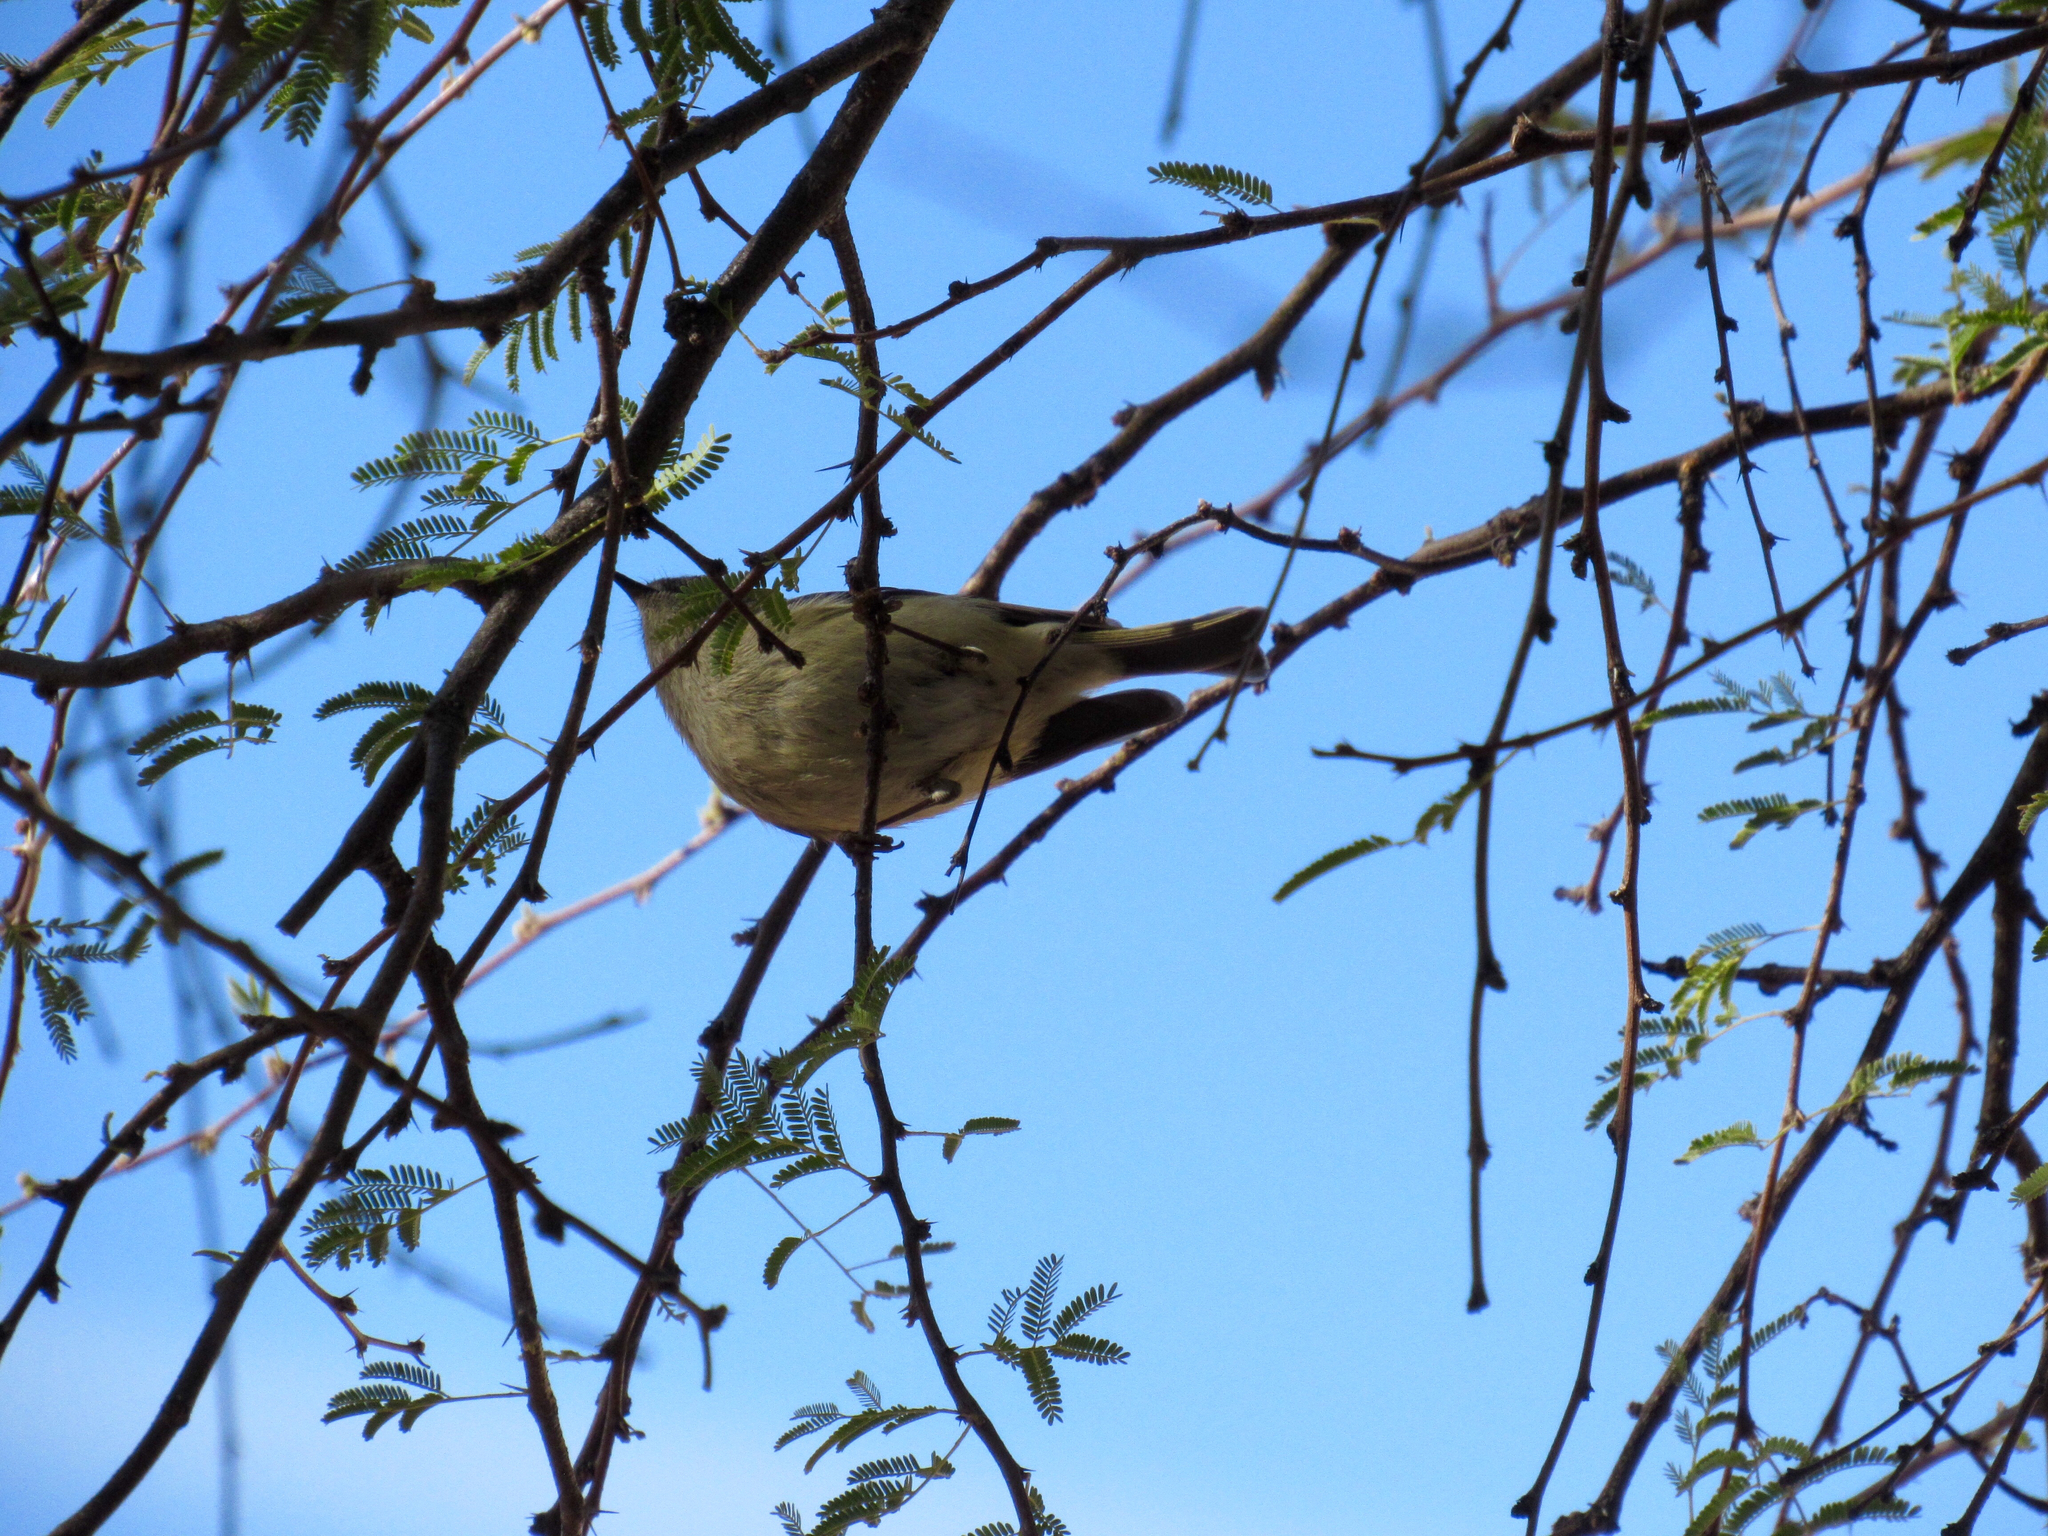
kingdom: Animalia
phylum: Chordata
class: Aves
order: Passeriformes
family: Regulidae
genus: Regulus
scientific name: Regulus calendula
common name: Ruby-crowned kinglet
